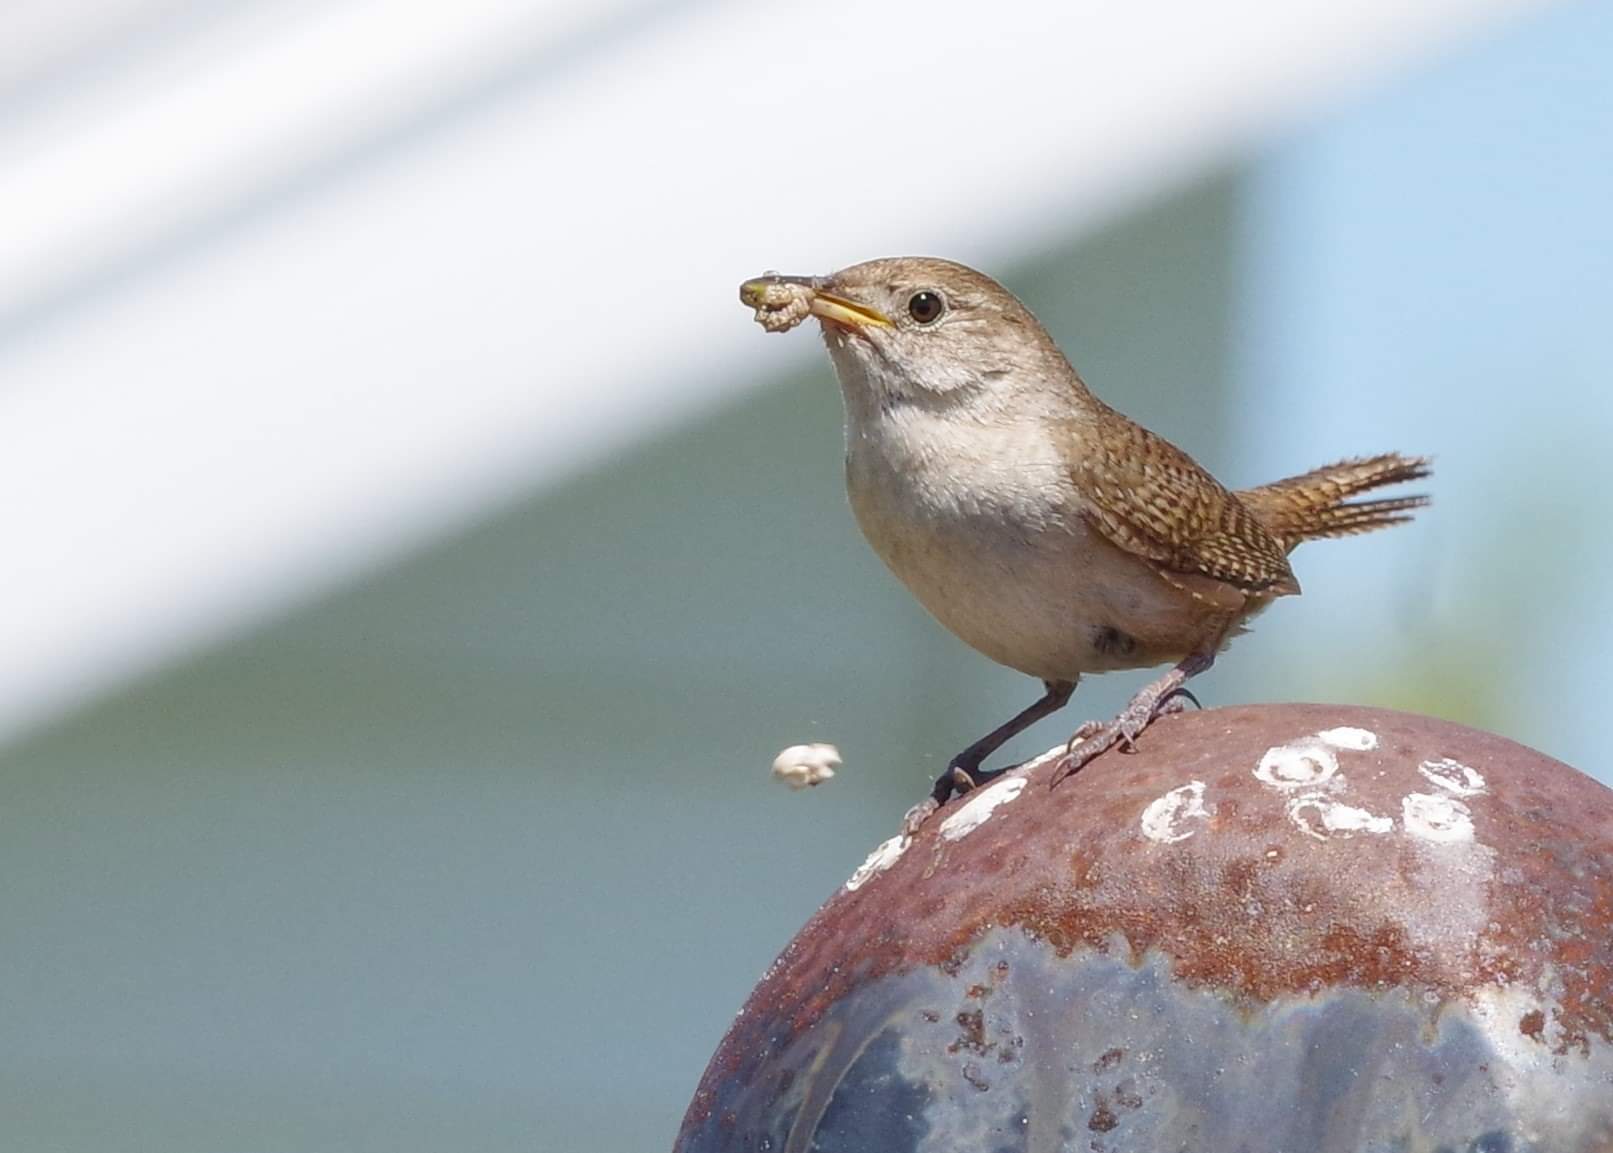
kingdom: Animalia
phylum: Chordata
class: Aves
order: Passeriformes
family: Troglodytidae
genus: Troglodytes
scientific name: Troglodytes aedon
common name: House wren
